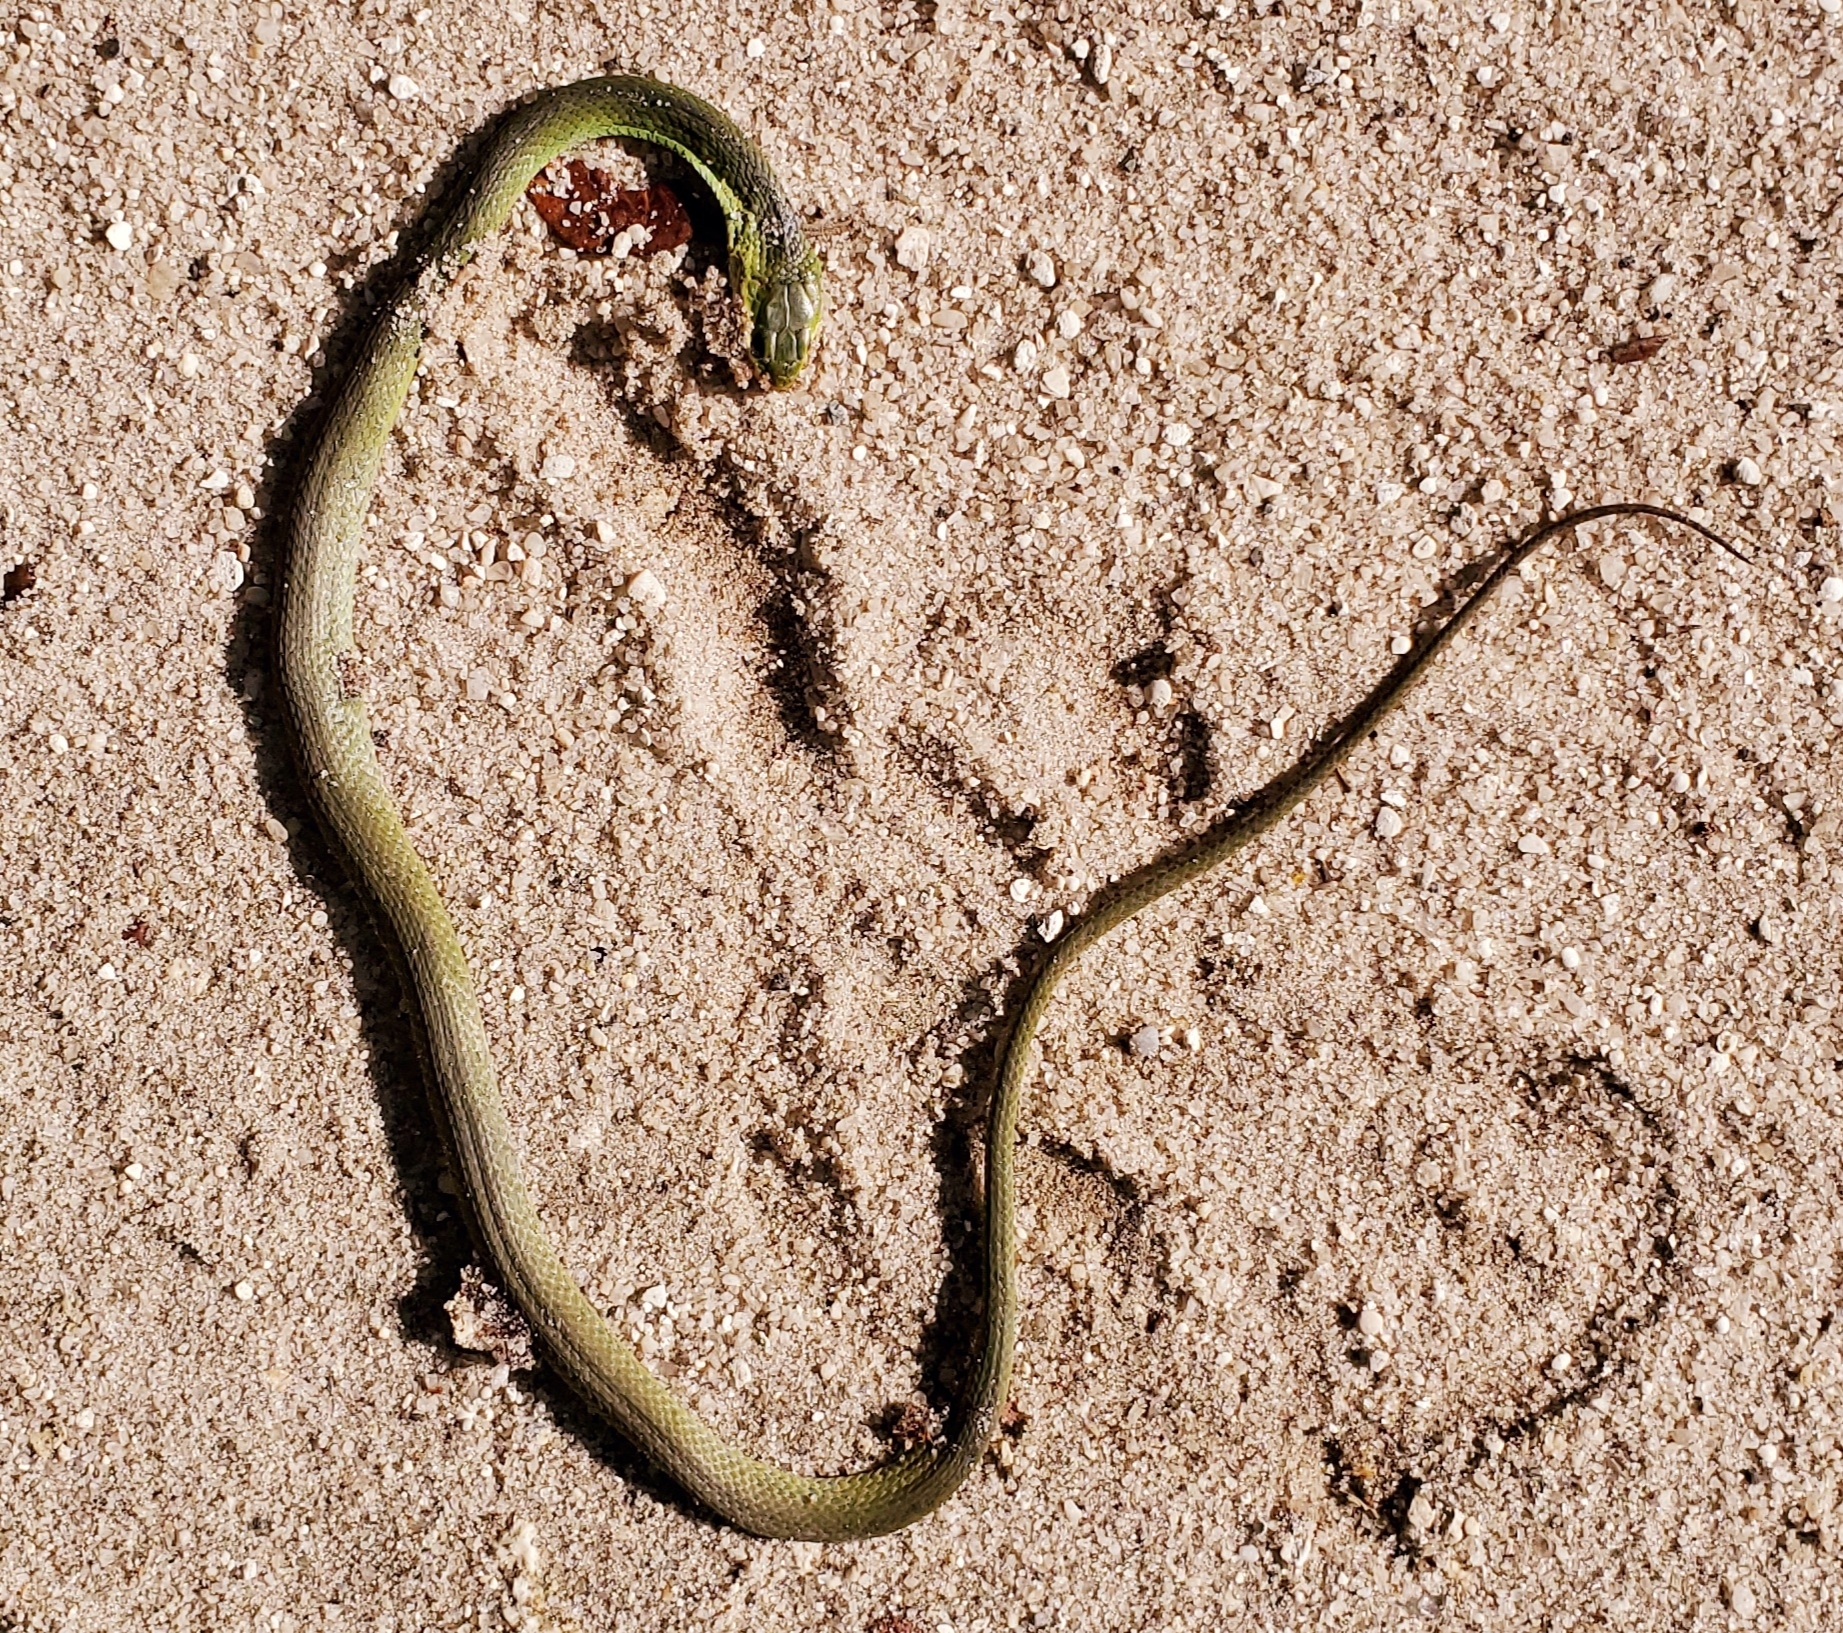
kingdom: Animalia
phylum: Chordata
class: Squamata
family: Colubridae
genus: Opheodrys
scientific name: Opheodrys aestivus
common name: Rough greensnake
